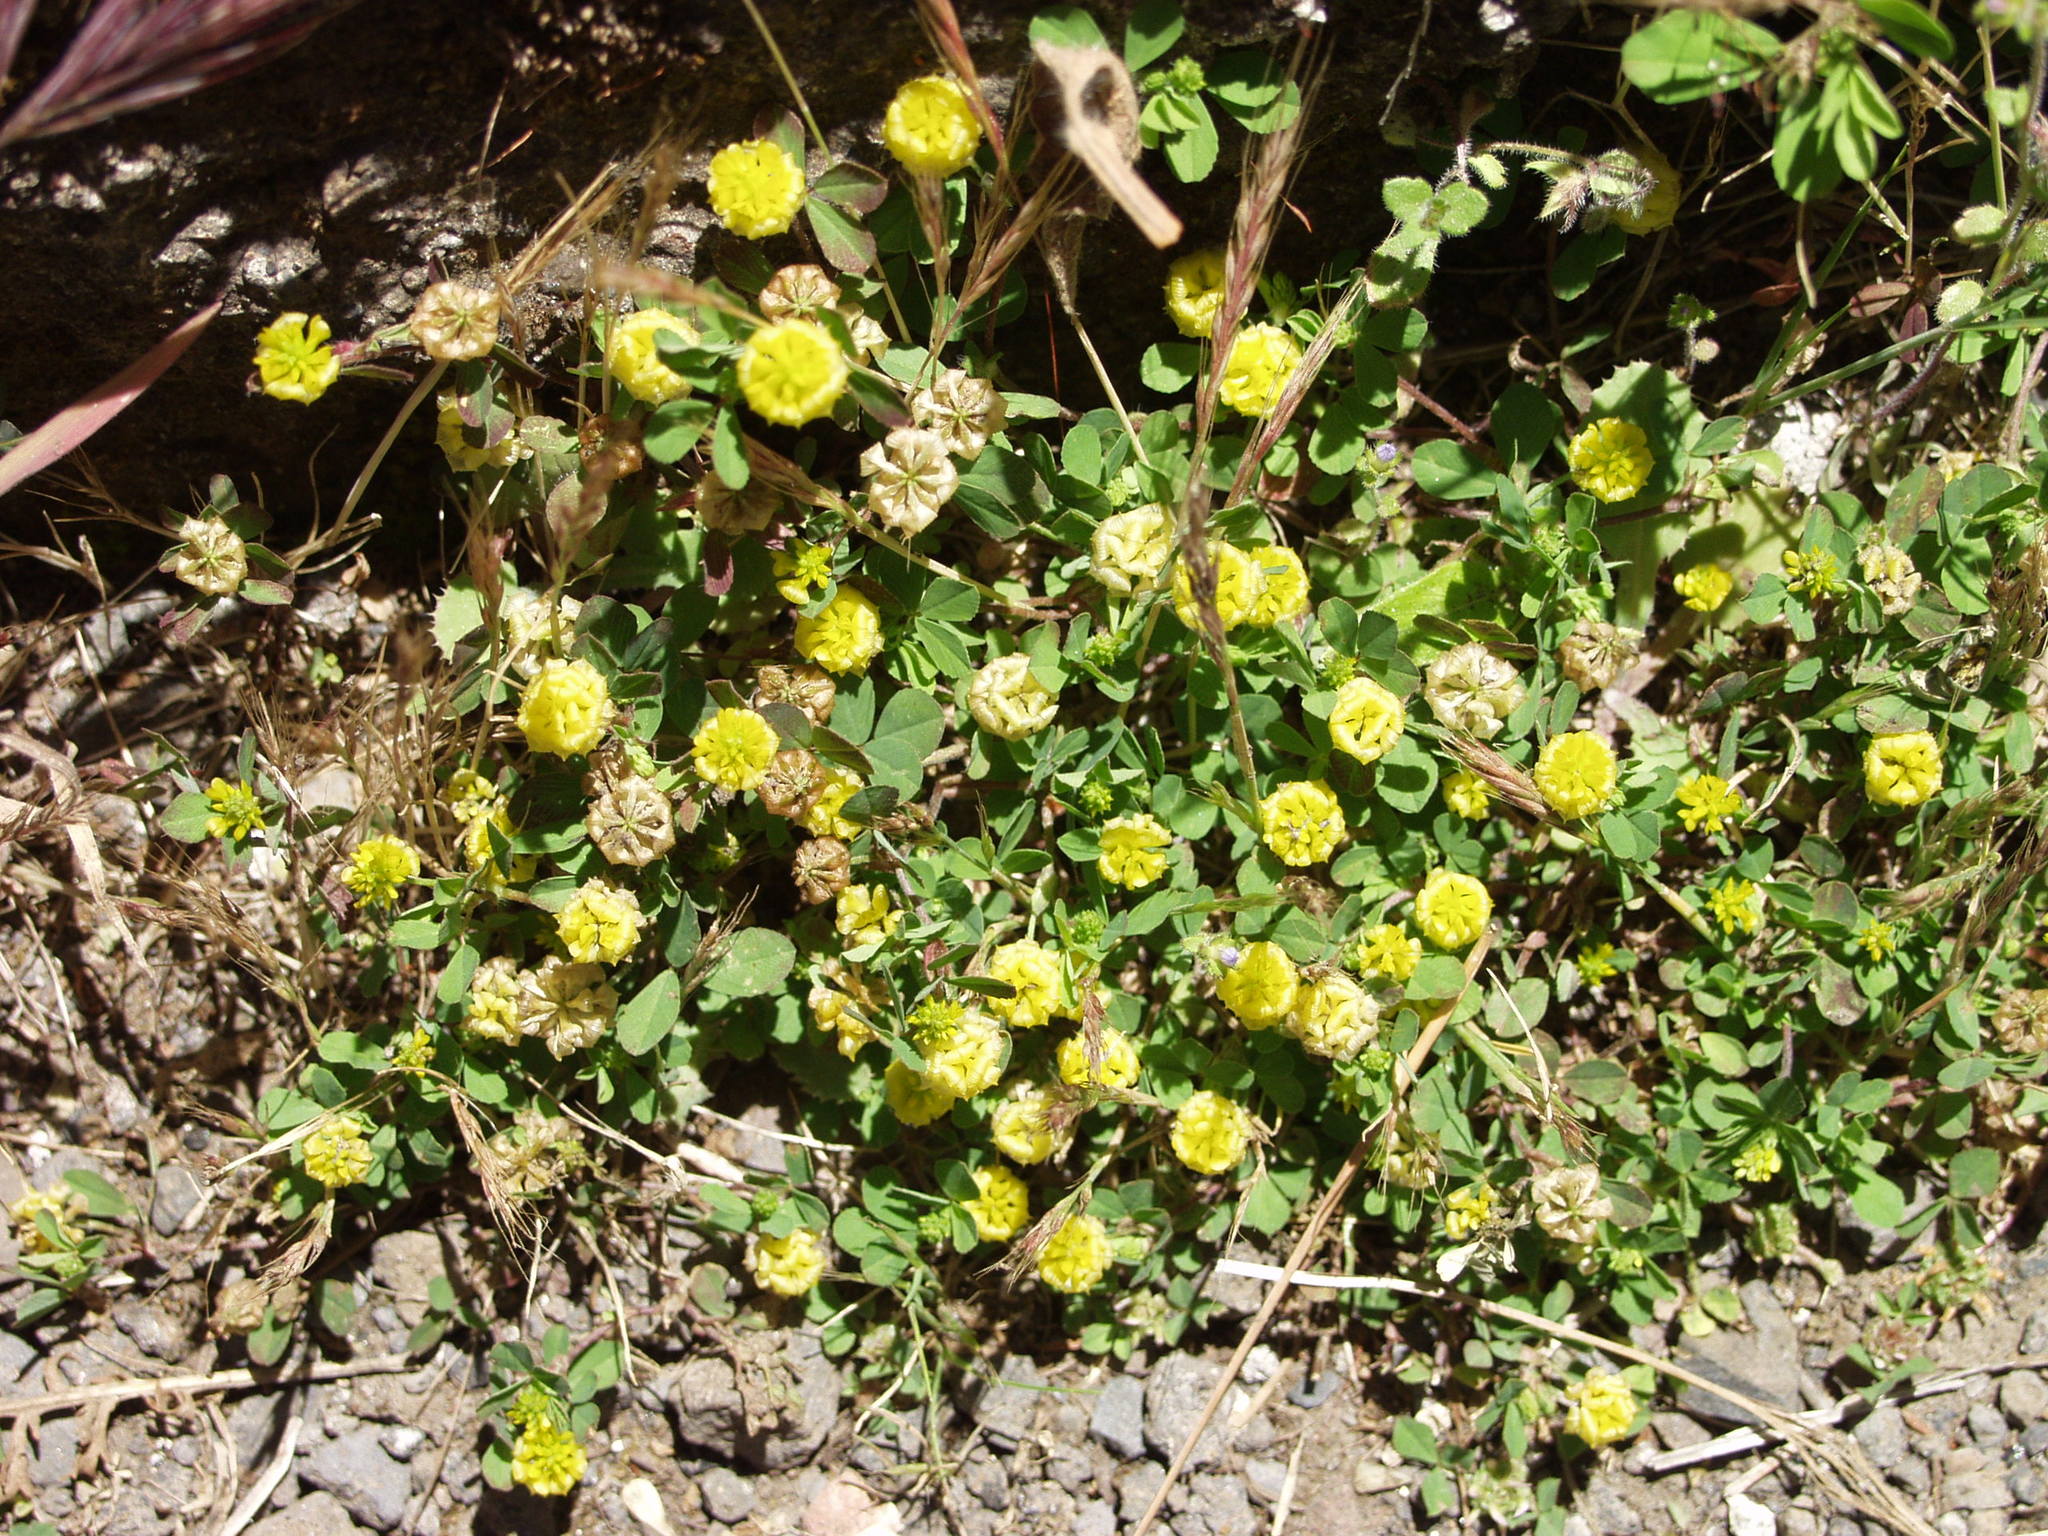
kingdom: Plantae
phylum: Tracheophyta
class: Magnoliopsida
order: Fabales
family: Fabaceae
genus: Trifolium
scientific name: Trifolium campestre
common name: Field clover
